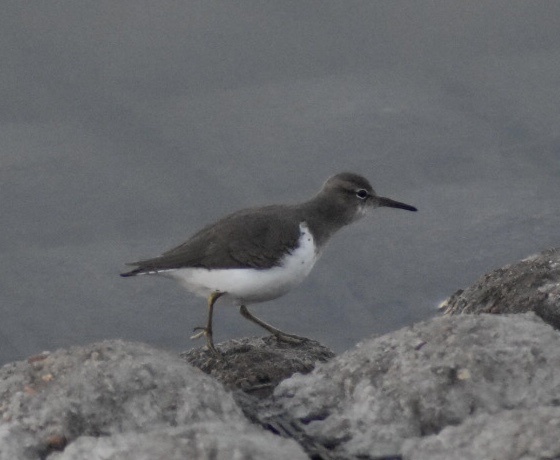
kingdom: Animalia
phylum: Chordata
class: Aves
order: Charadriiformes
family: Scolopacidae
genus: Actitis
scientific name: Actitis macularius
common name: Spotted sandpiper
